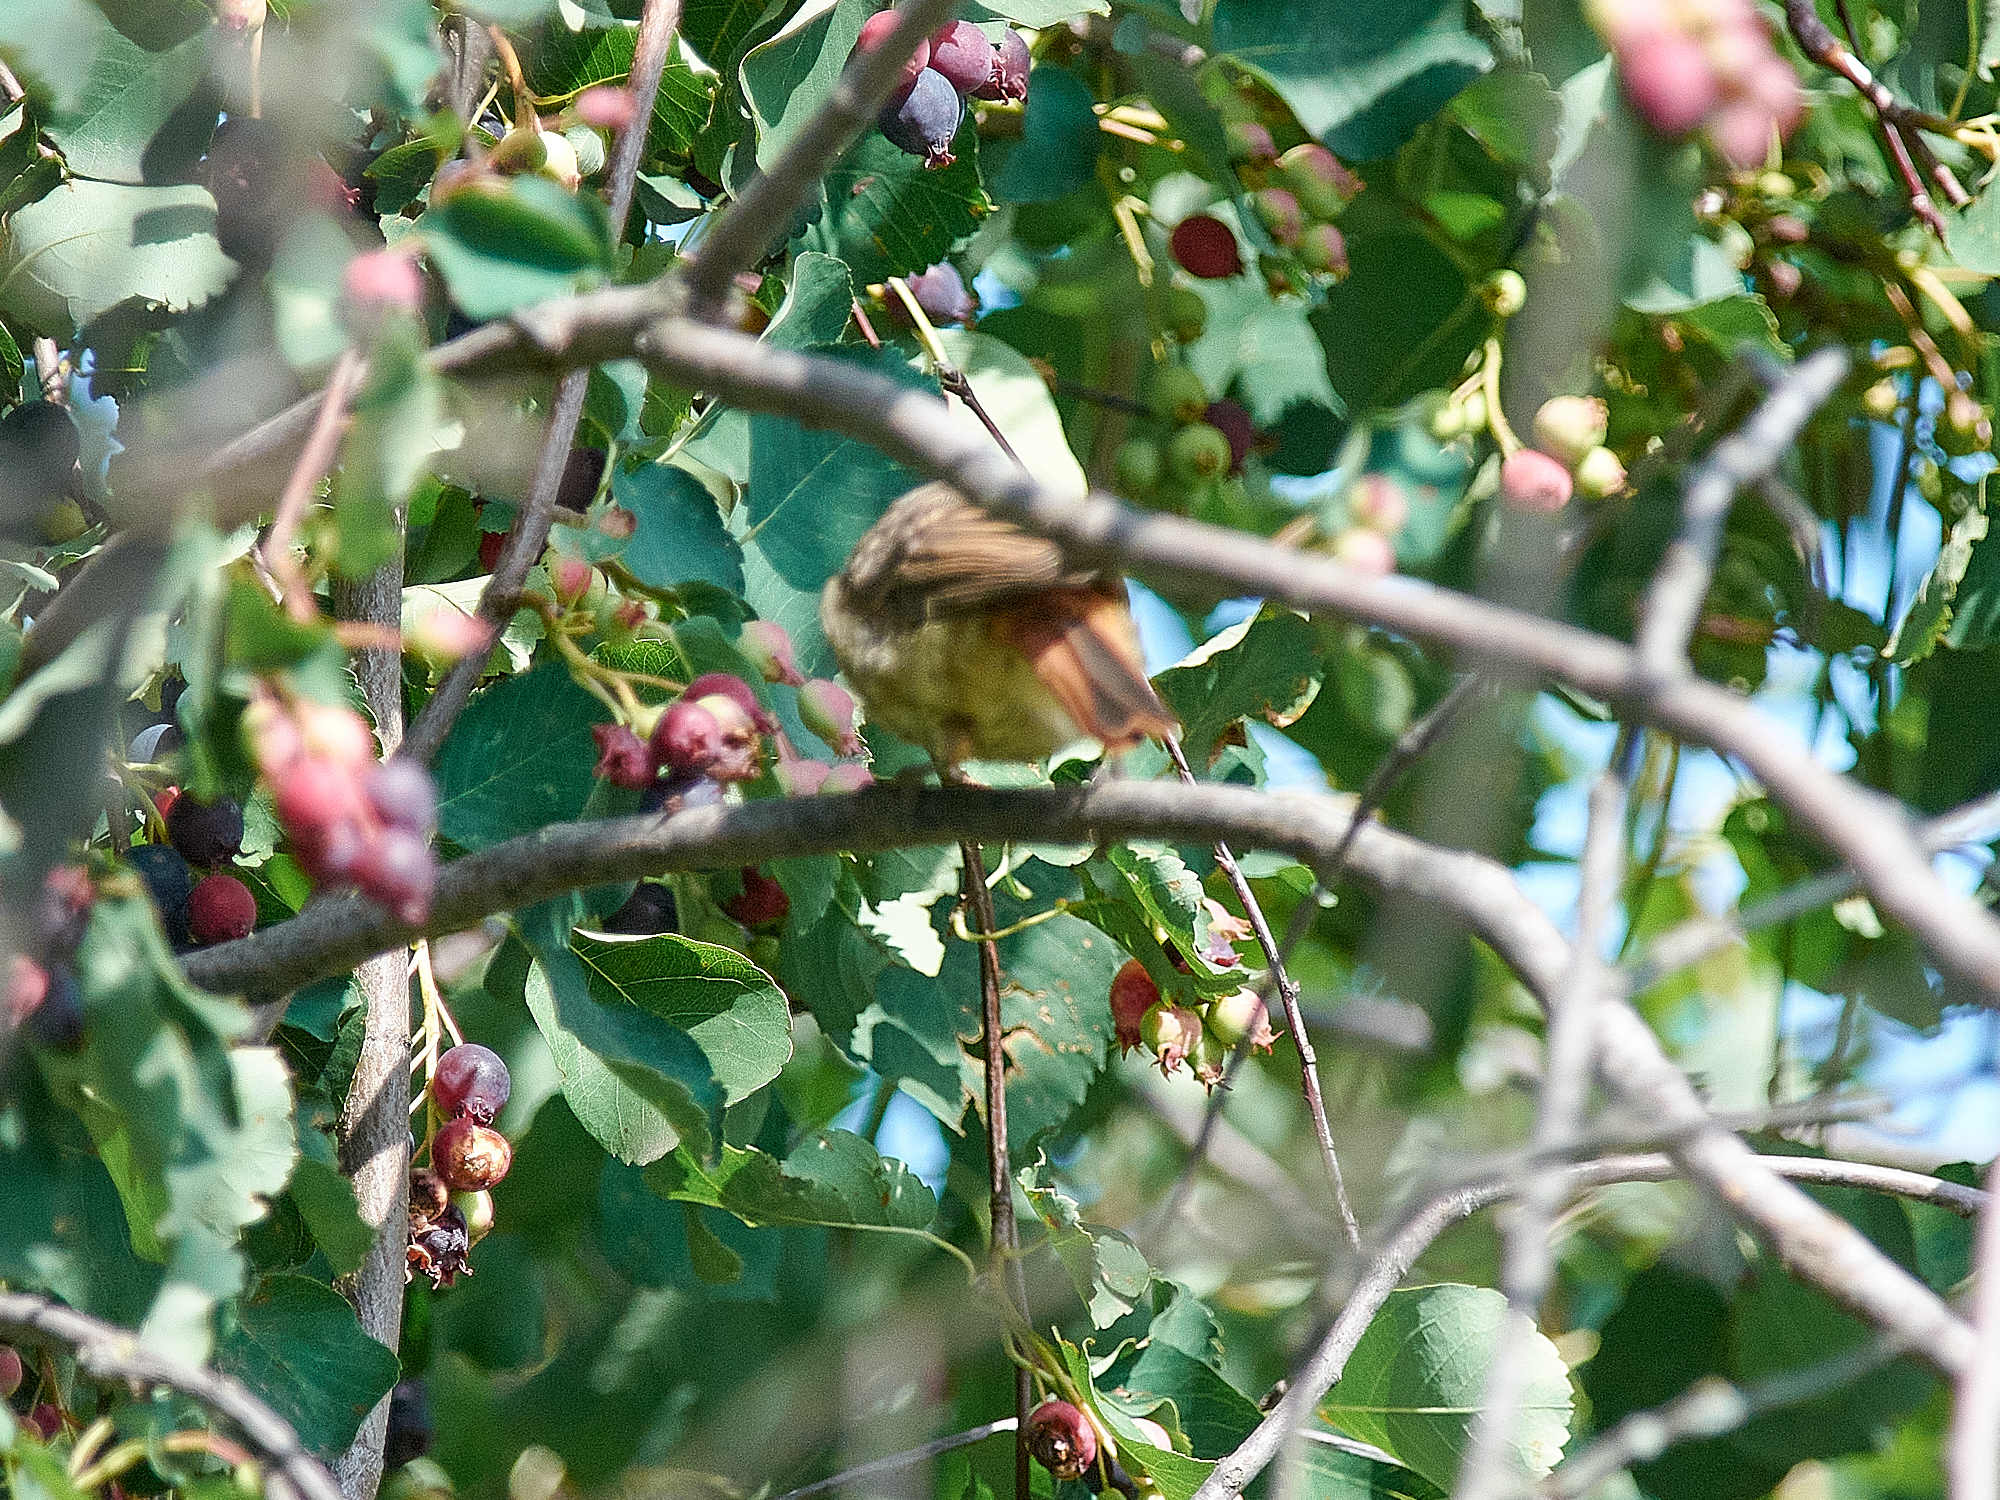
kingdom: Animalia
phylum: Chordata
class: Aves
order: Passeriformes
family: Muscicapidae
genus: Phoenicurus
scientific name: Phoenicurus phoenicurus
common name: Common redstart
